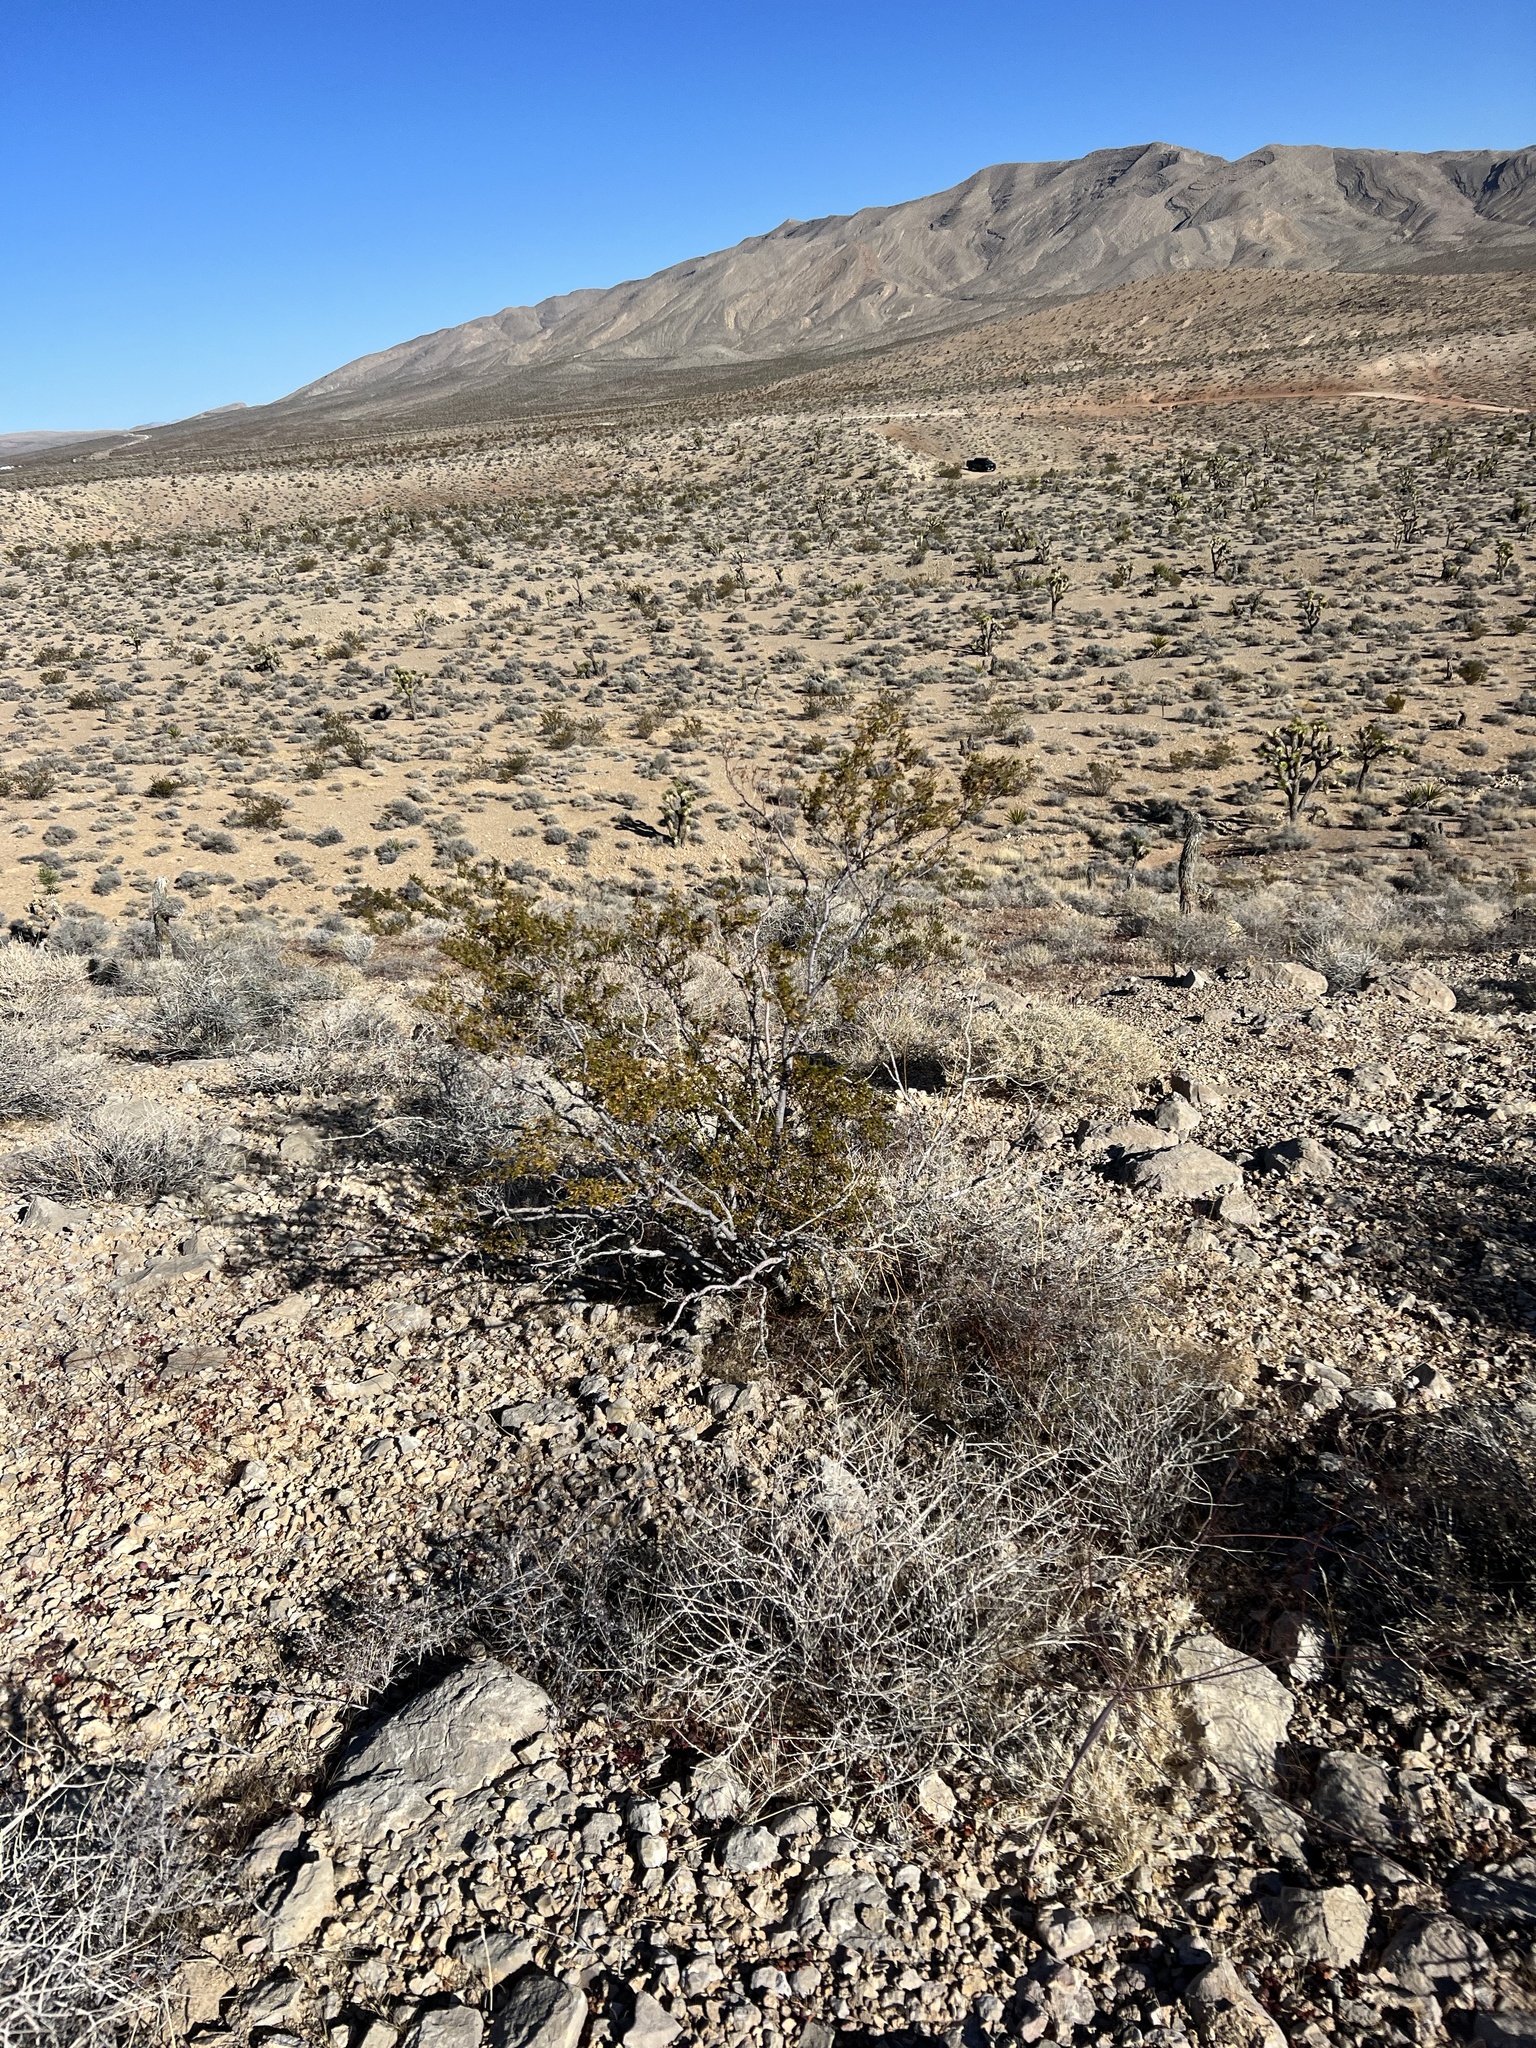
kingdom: Plantae
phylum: Tracheophyta
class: Magnoliopsida
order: Zygophyllales
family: Zygophyllaceae
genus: Larrea
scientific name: Larrea tridentata
